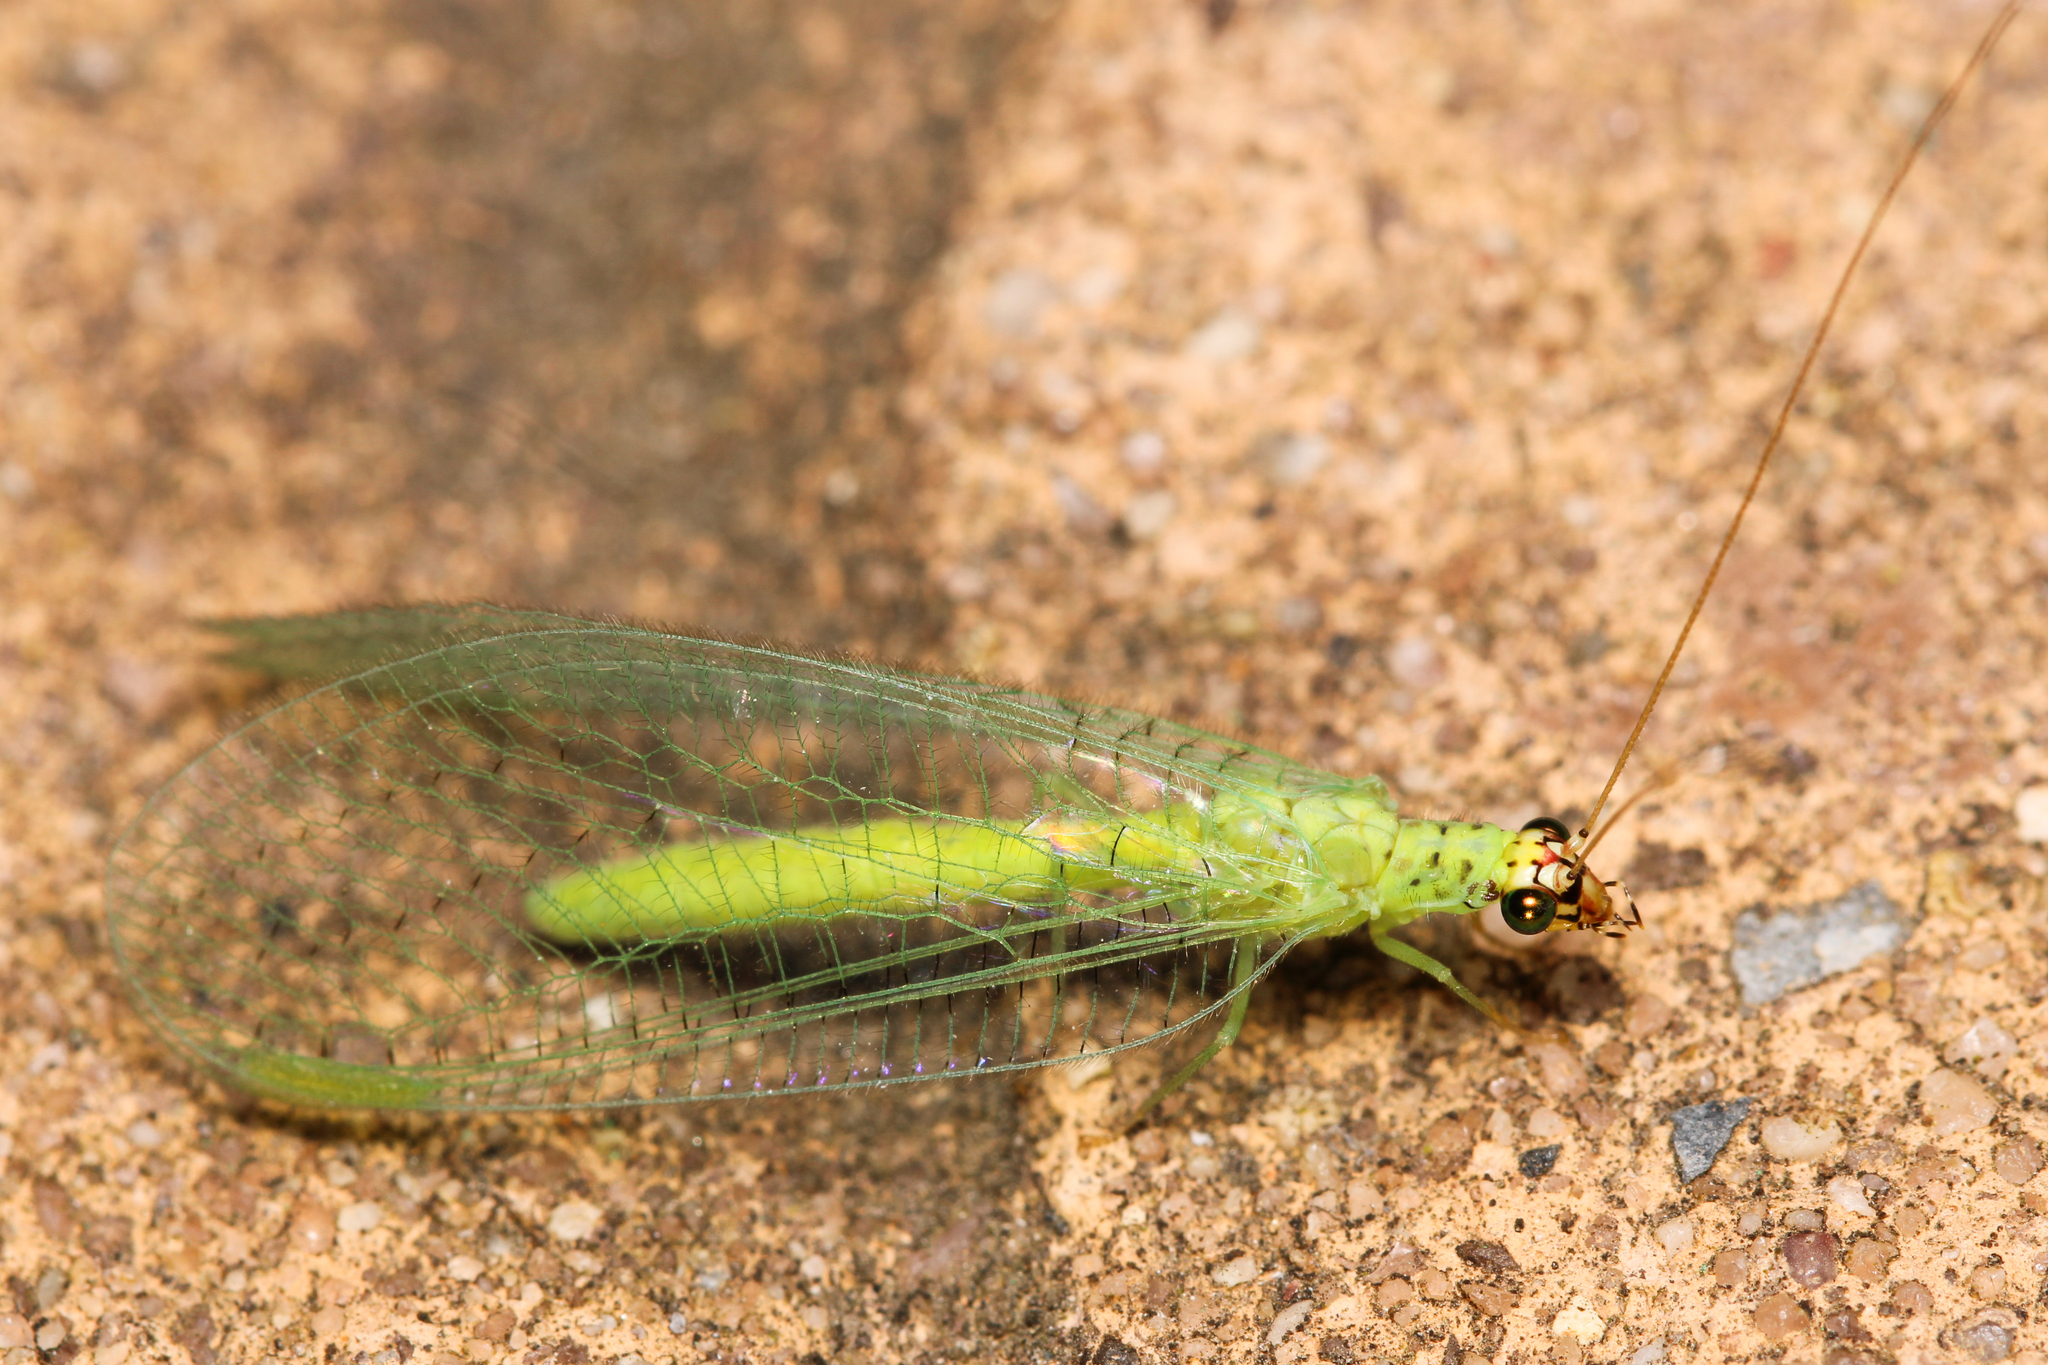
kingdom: Animalia
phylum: Arthropoda
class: Insecta
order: Neuroptera
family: Chrysopidae
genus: Chrysopa
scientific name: Chrysopa oculata
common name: Golden-eyed lacewing
